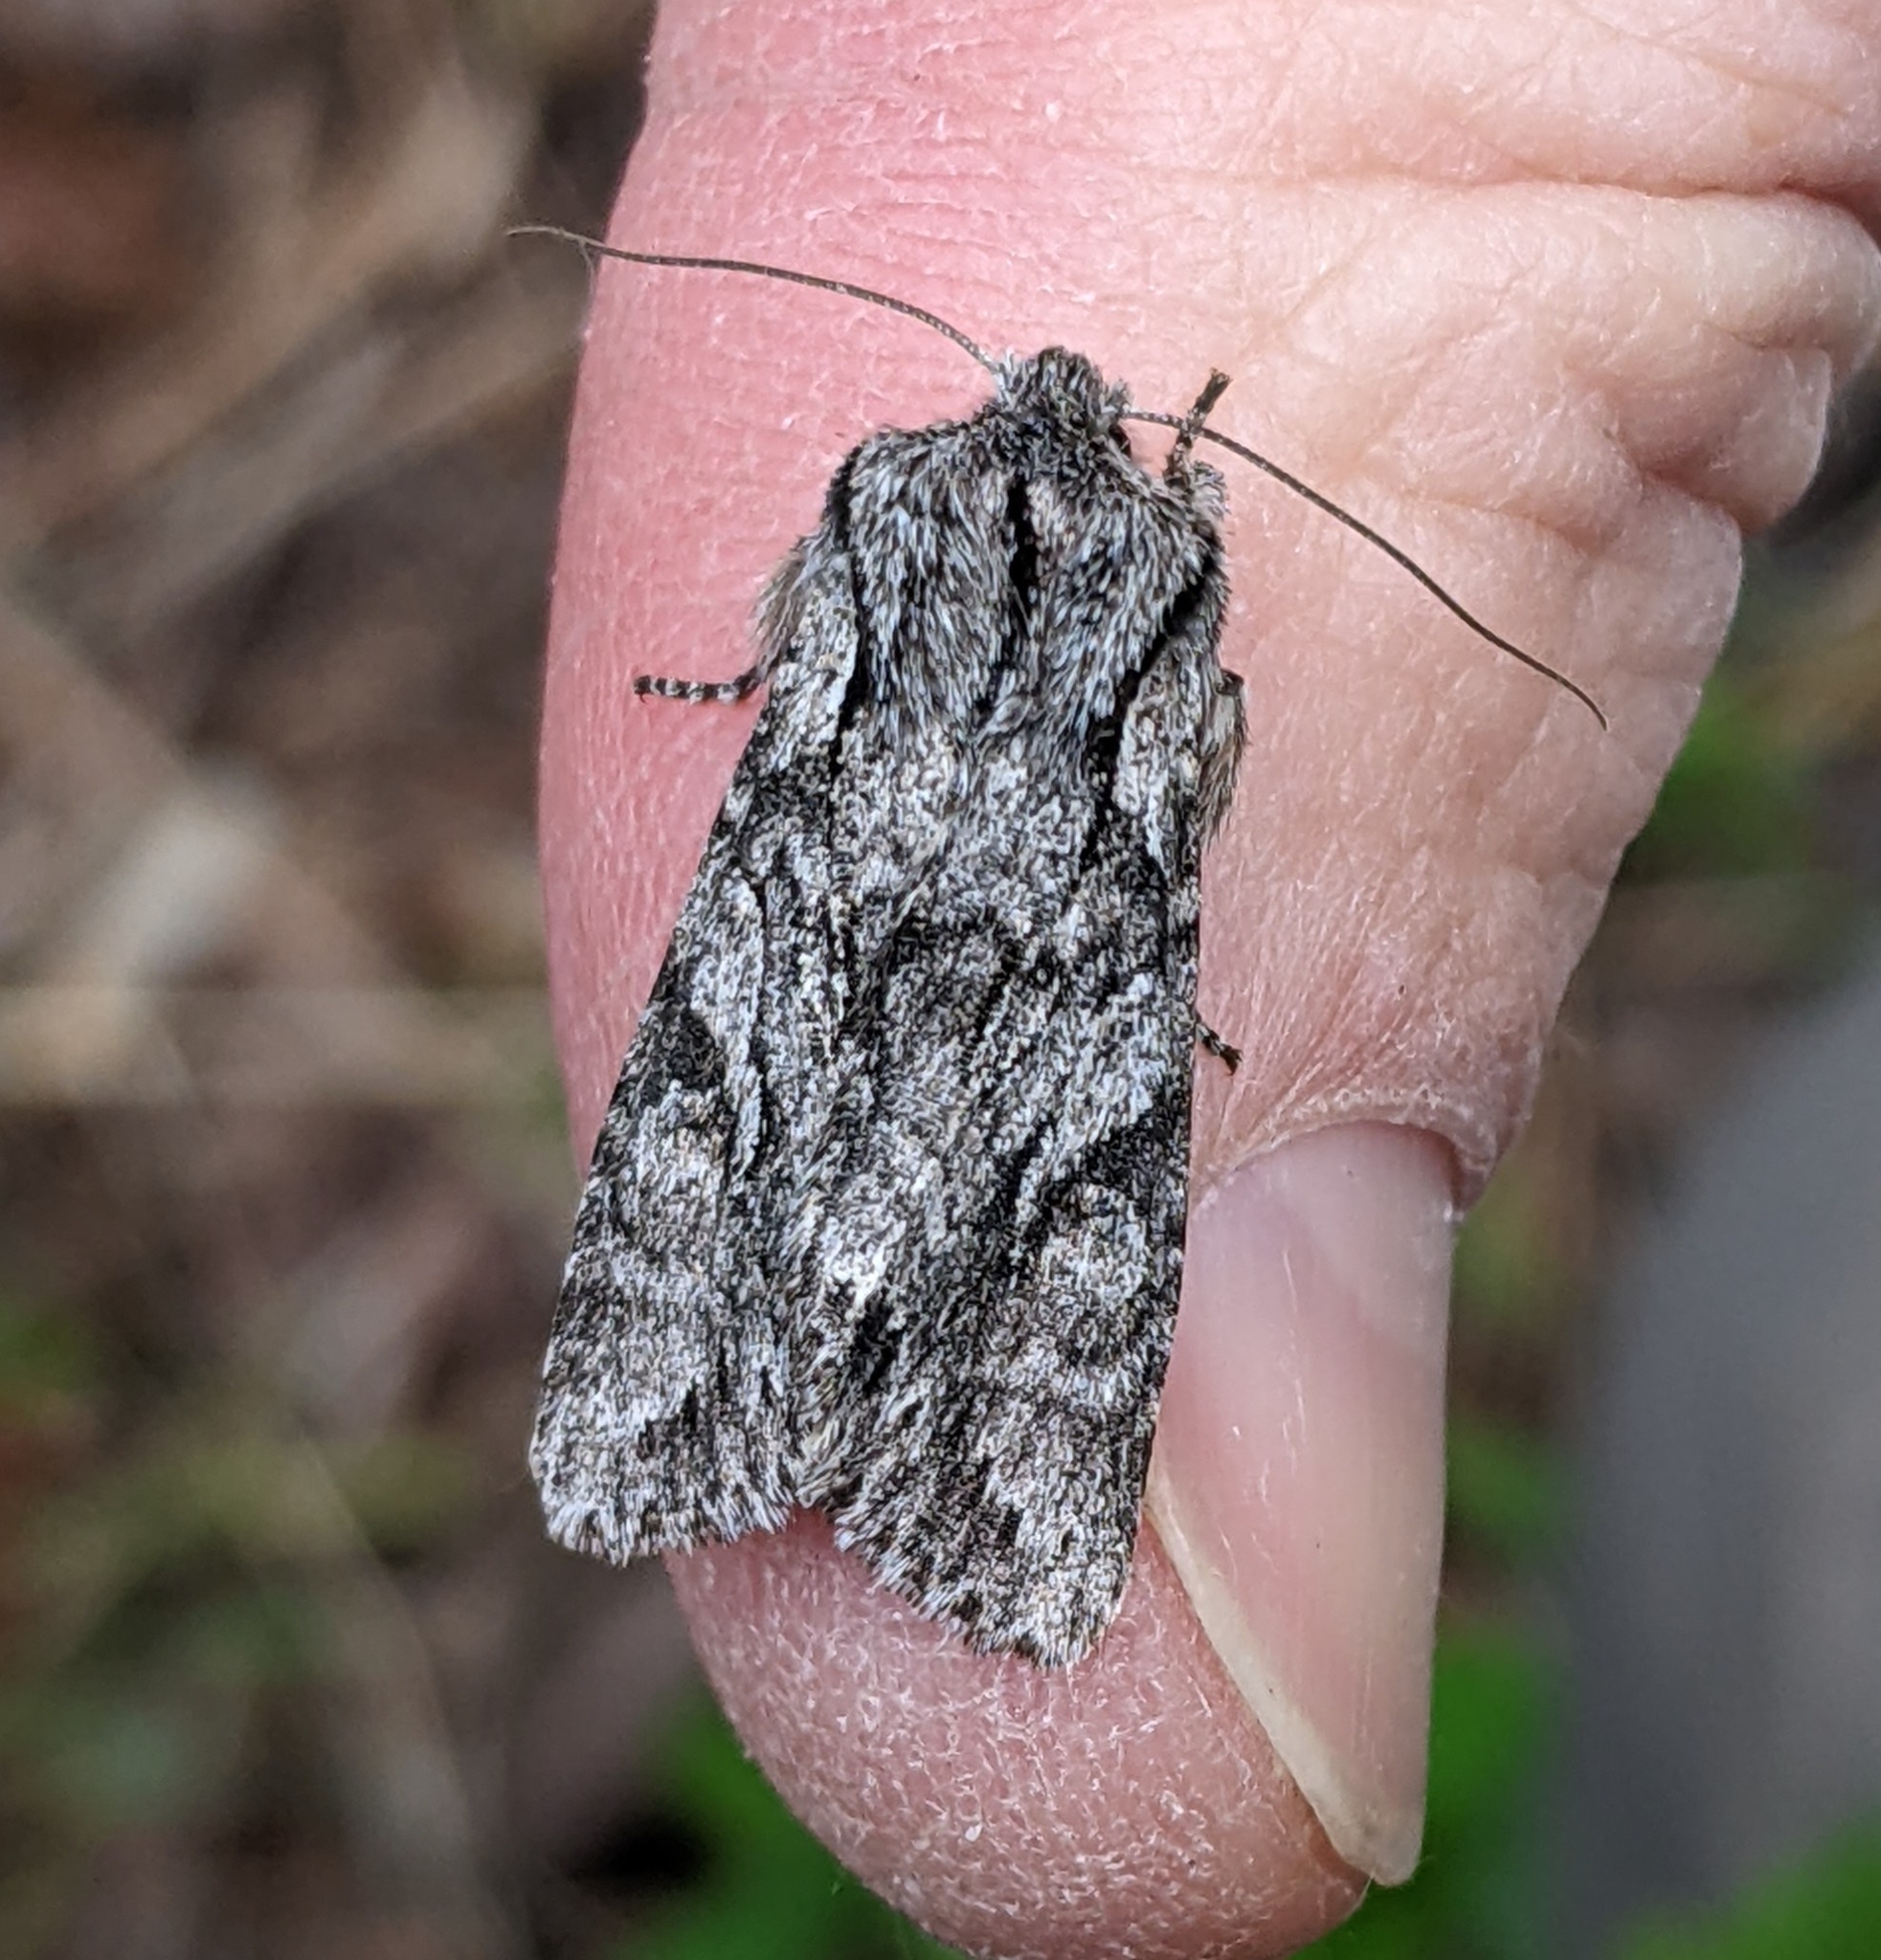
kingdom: Animalia
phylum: Arthropoda
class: Insecta
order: Lepidoptera
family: Noctuidae
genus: Egira
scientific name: Egira simplex
